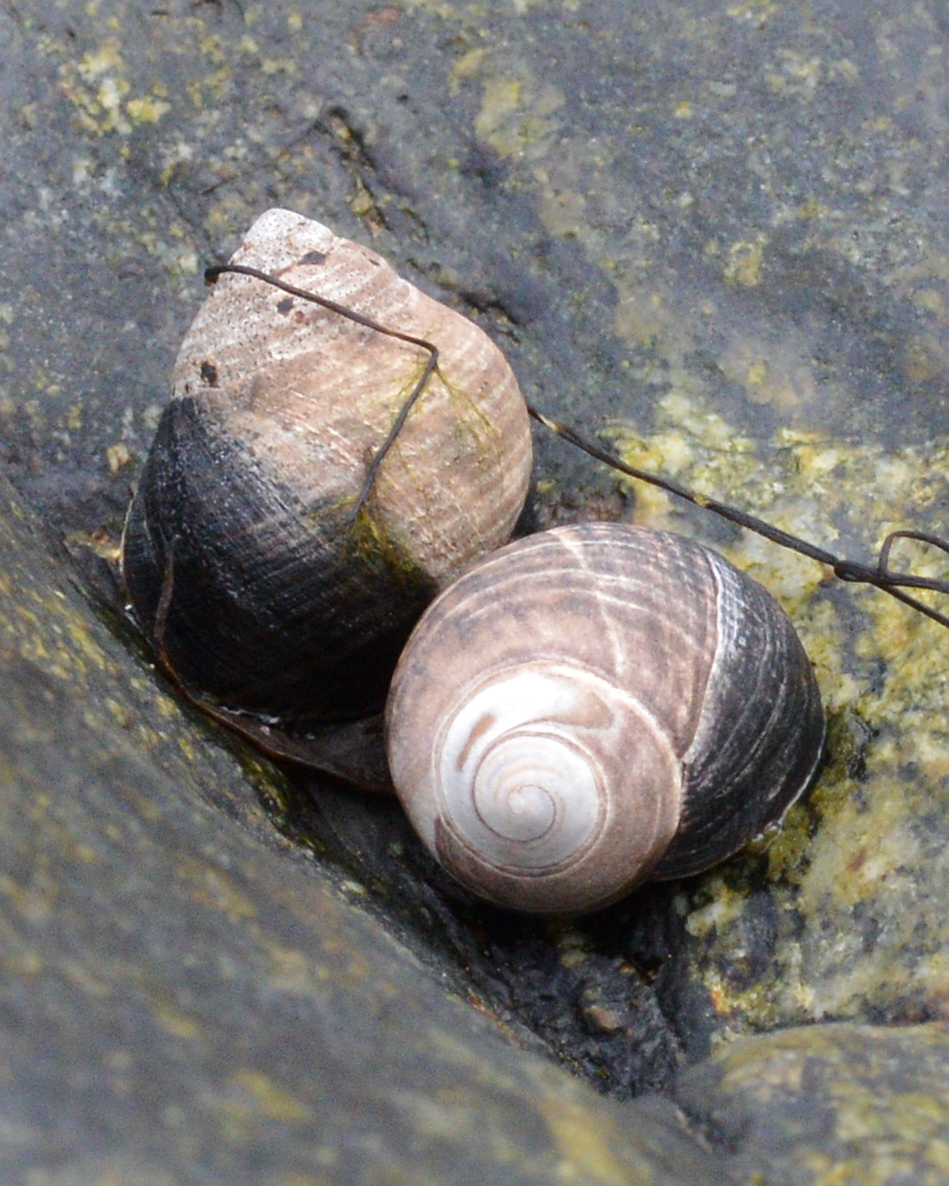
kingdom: Animalia
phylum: Mollusca
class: Gastropoda
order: Littorinimorpha
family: Littorinidae
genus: Littorina
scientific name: Littorina littorea
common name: Common periwinkle
